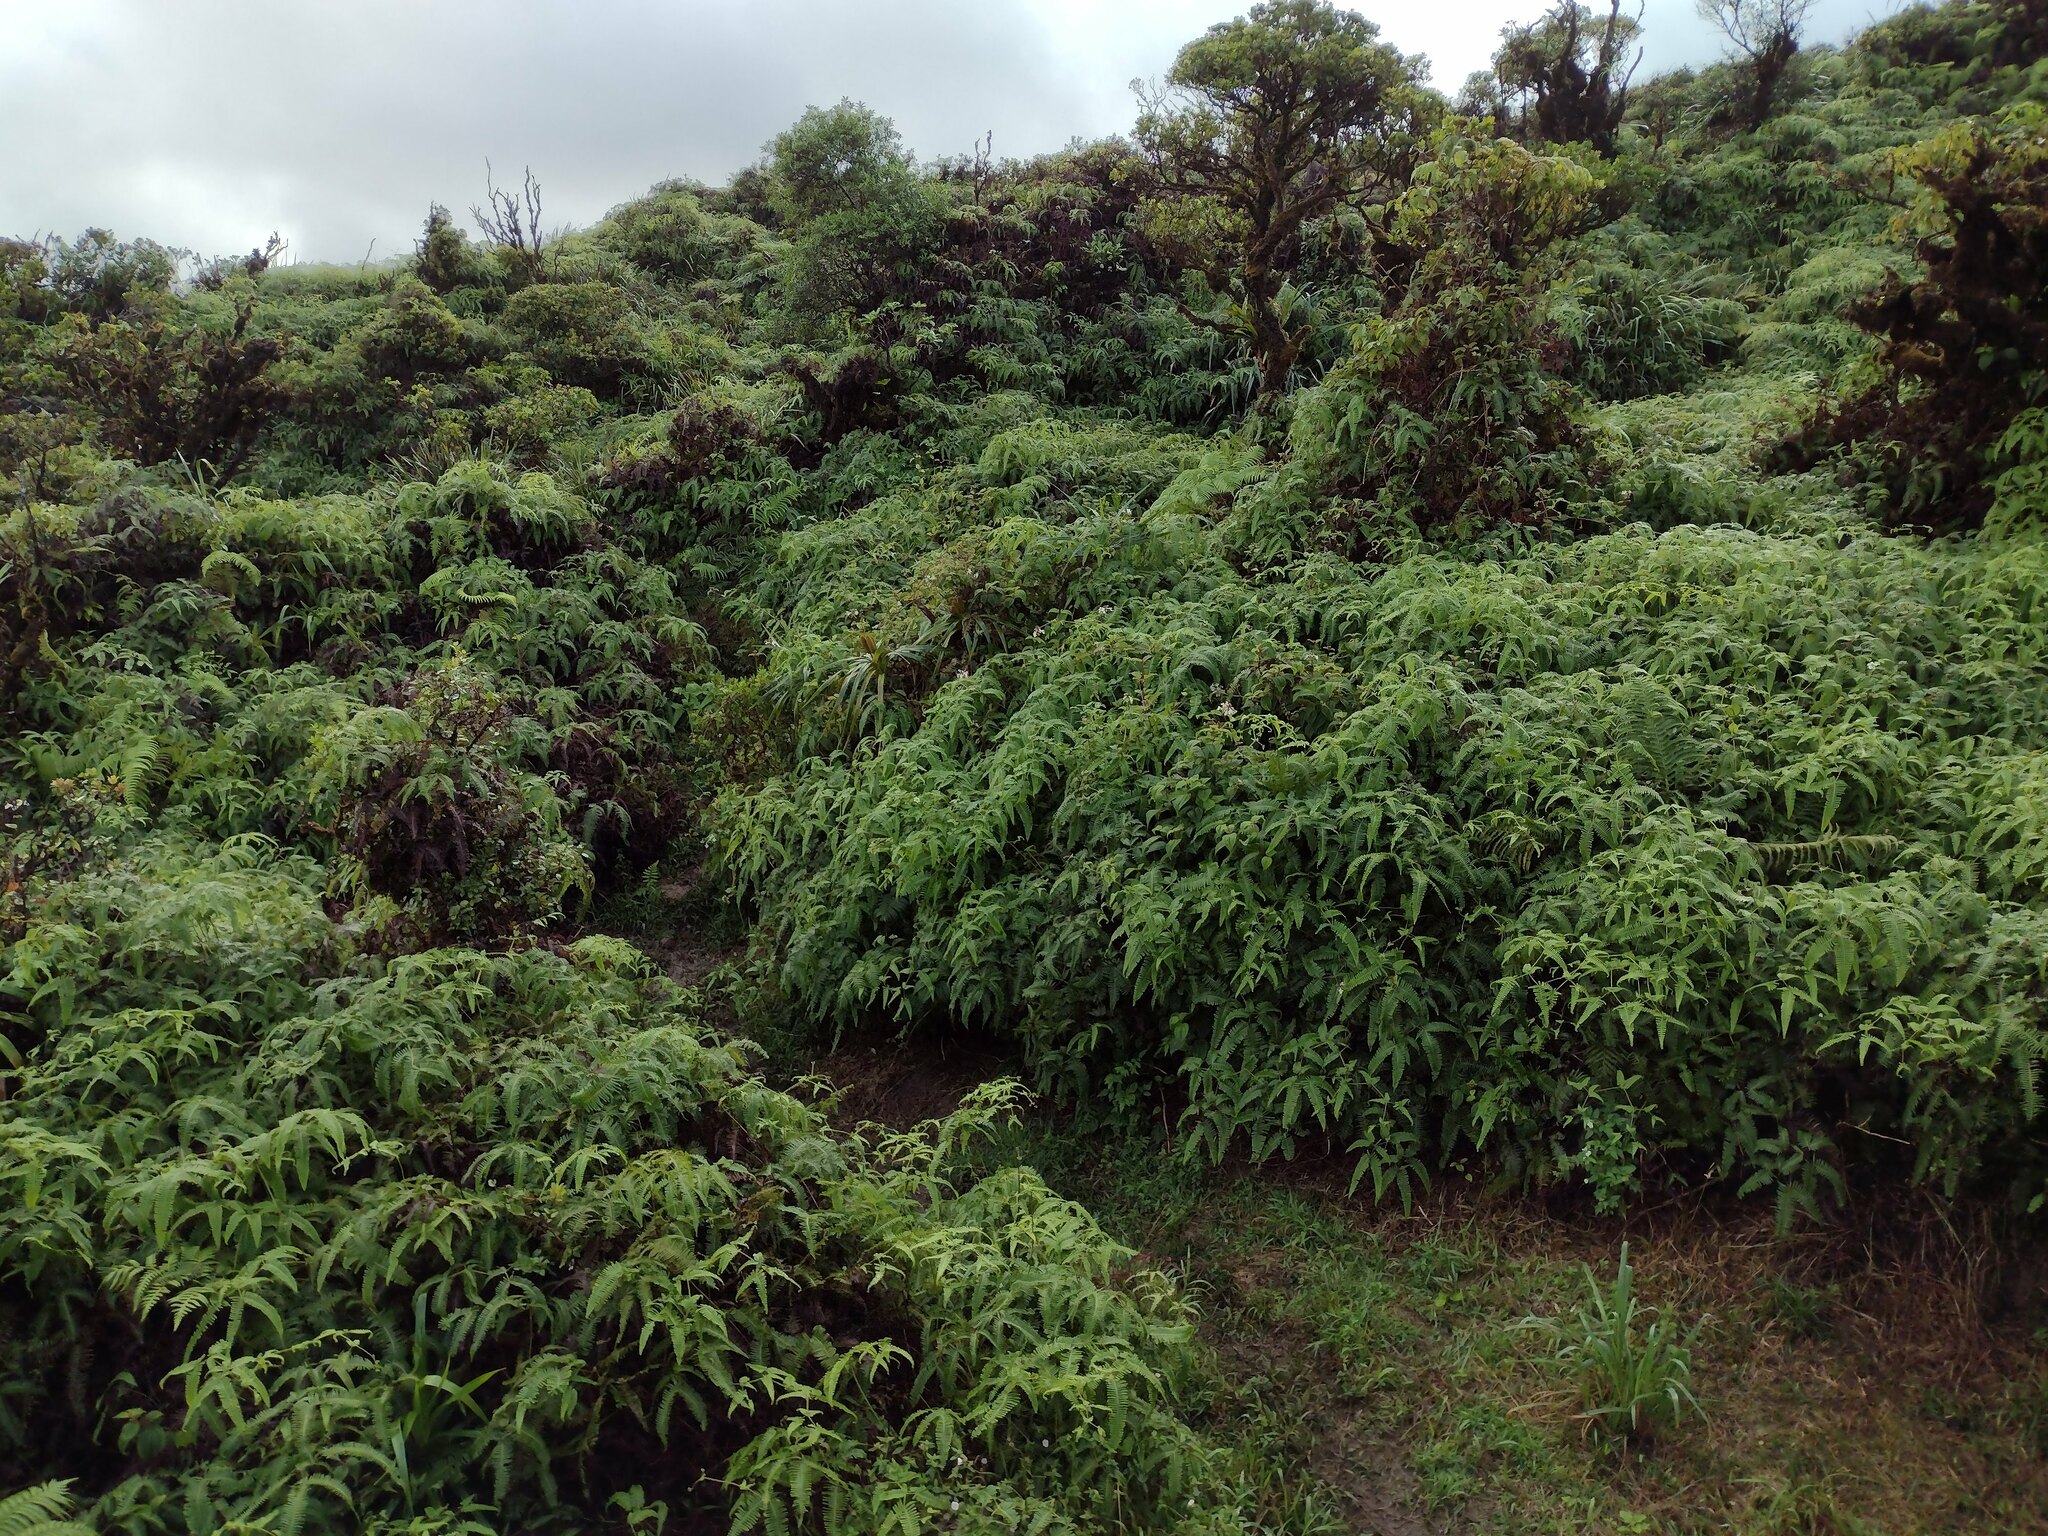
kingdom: Plantae
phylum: Tracheophyta
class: Polypodiopsida
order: Gleicheniales
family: Gleicheniaceae
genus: Dicranopteris
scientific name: Dicranopteris linearis
